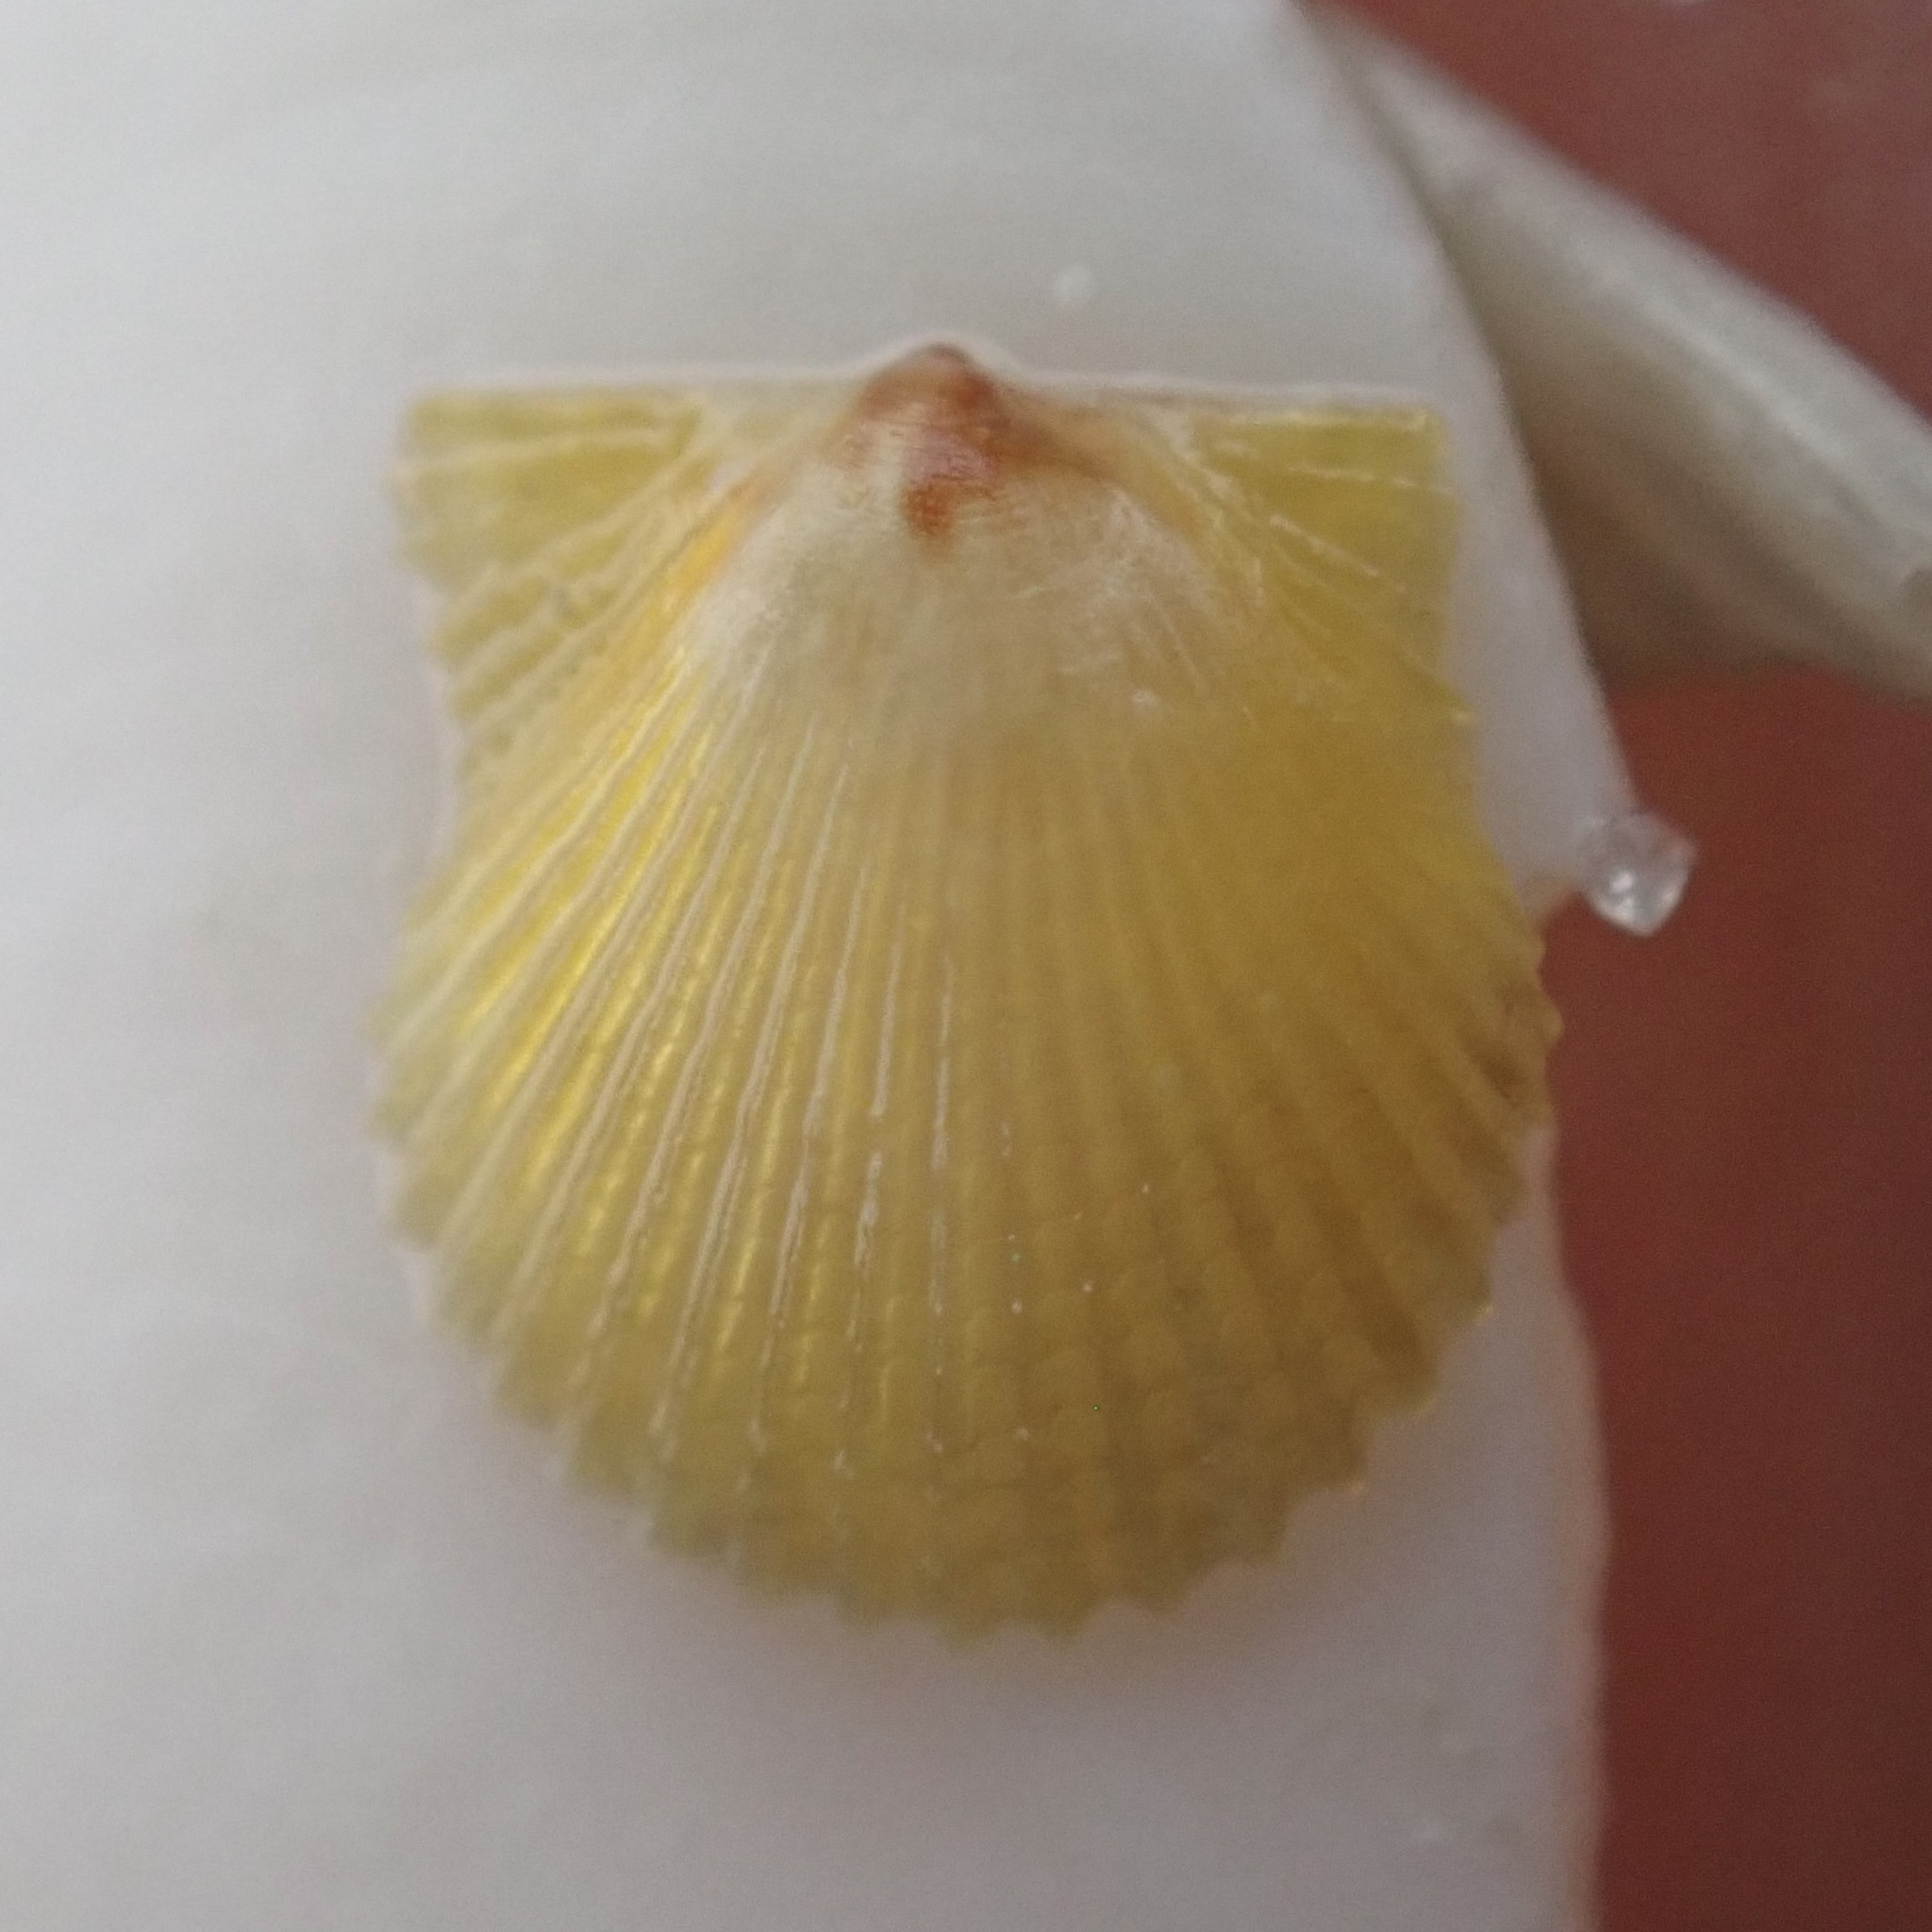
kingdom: Animalia
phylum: Mollusca
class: Bivalvia
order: Pectinida
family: Pectinidae
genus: Lindapecten
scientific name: Lindapecten muscosus
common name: Rough scallop
